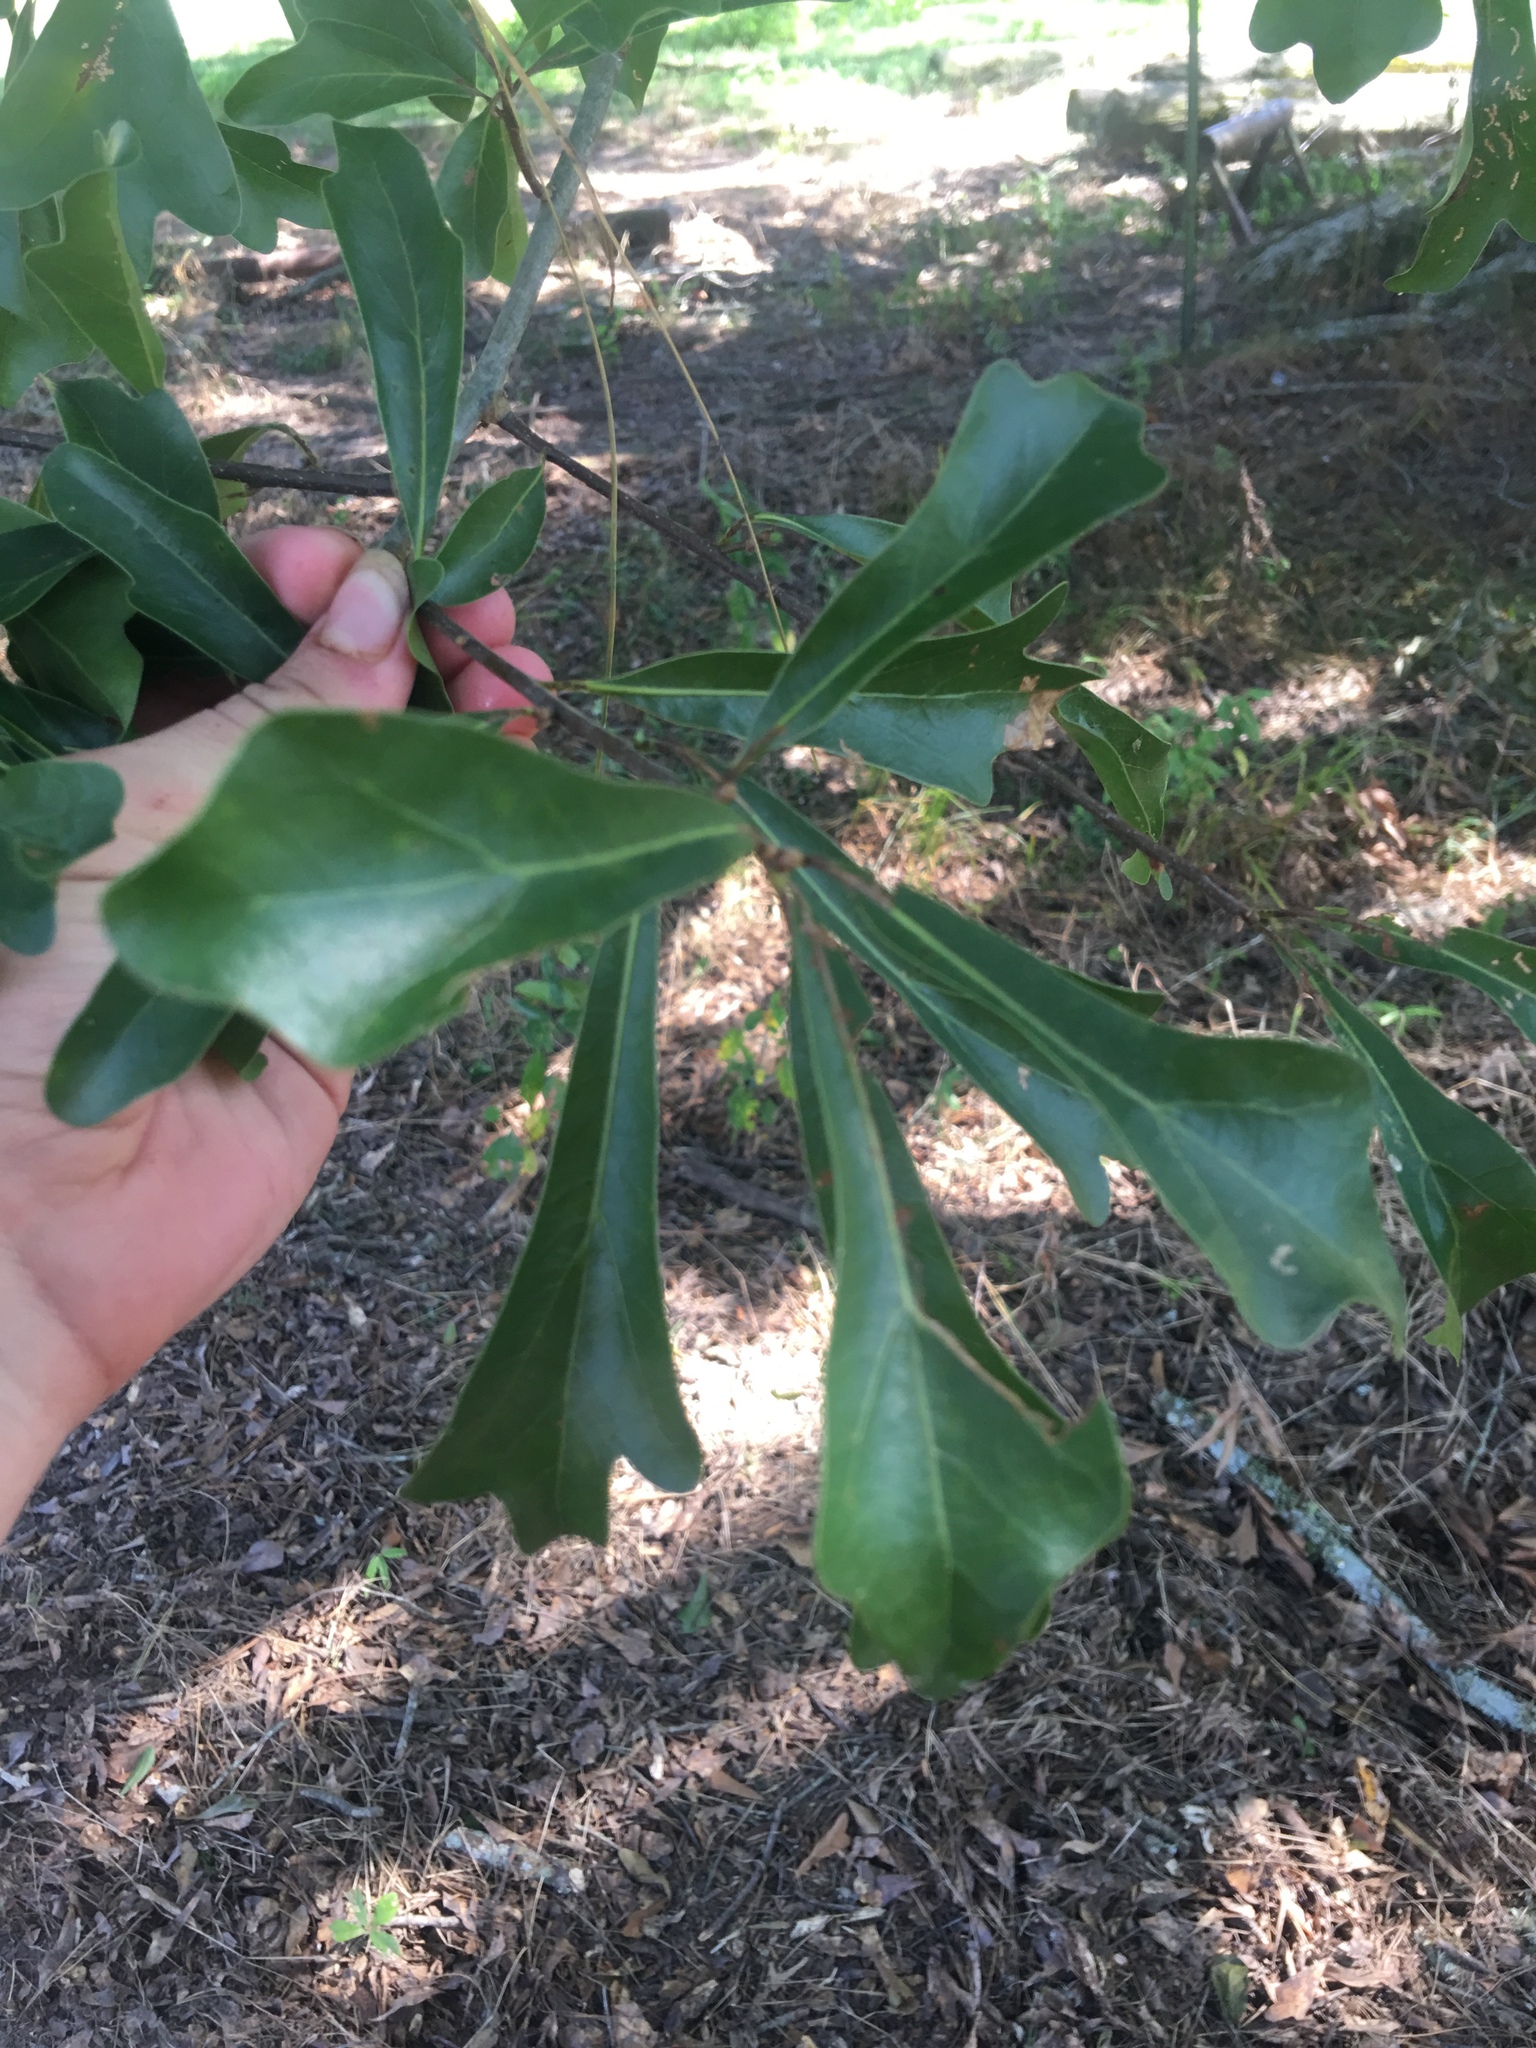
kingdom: Plantae
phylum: Tracheophyta
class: Magnoliopsida
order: Fagales
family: Fagaceae
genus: Quercus
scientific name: Quercus nigra
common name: Water oak
